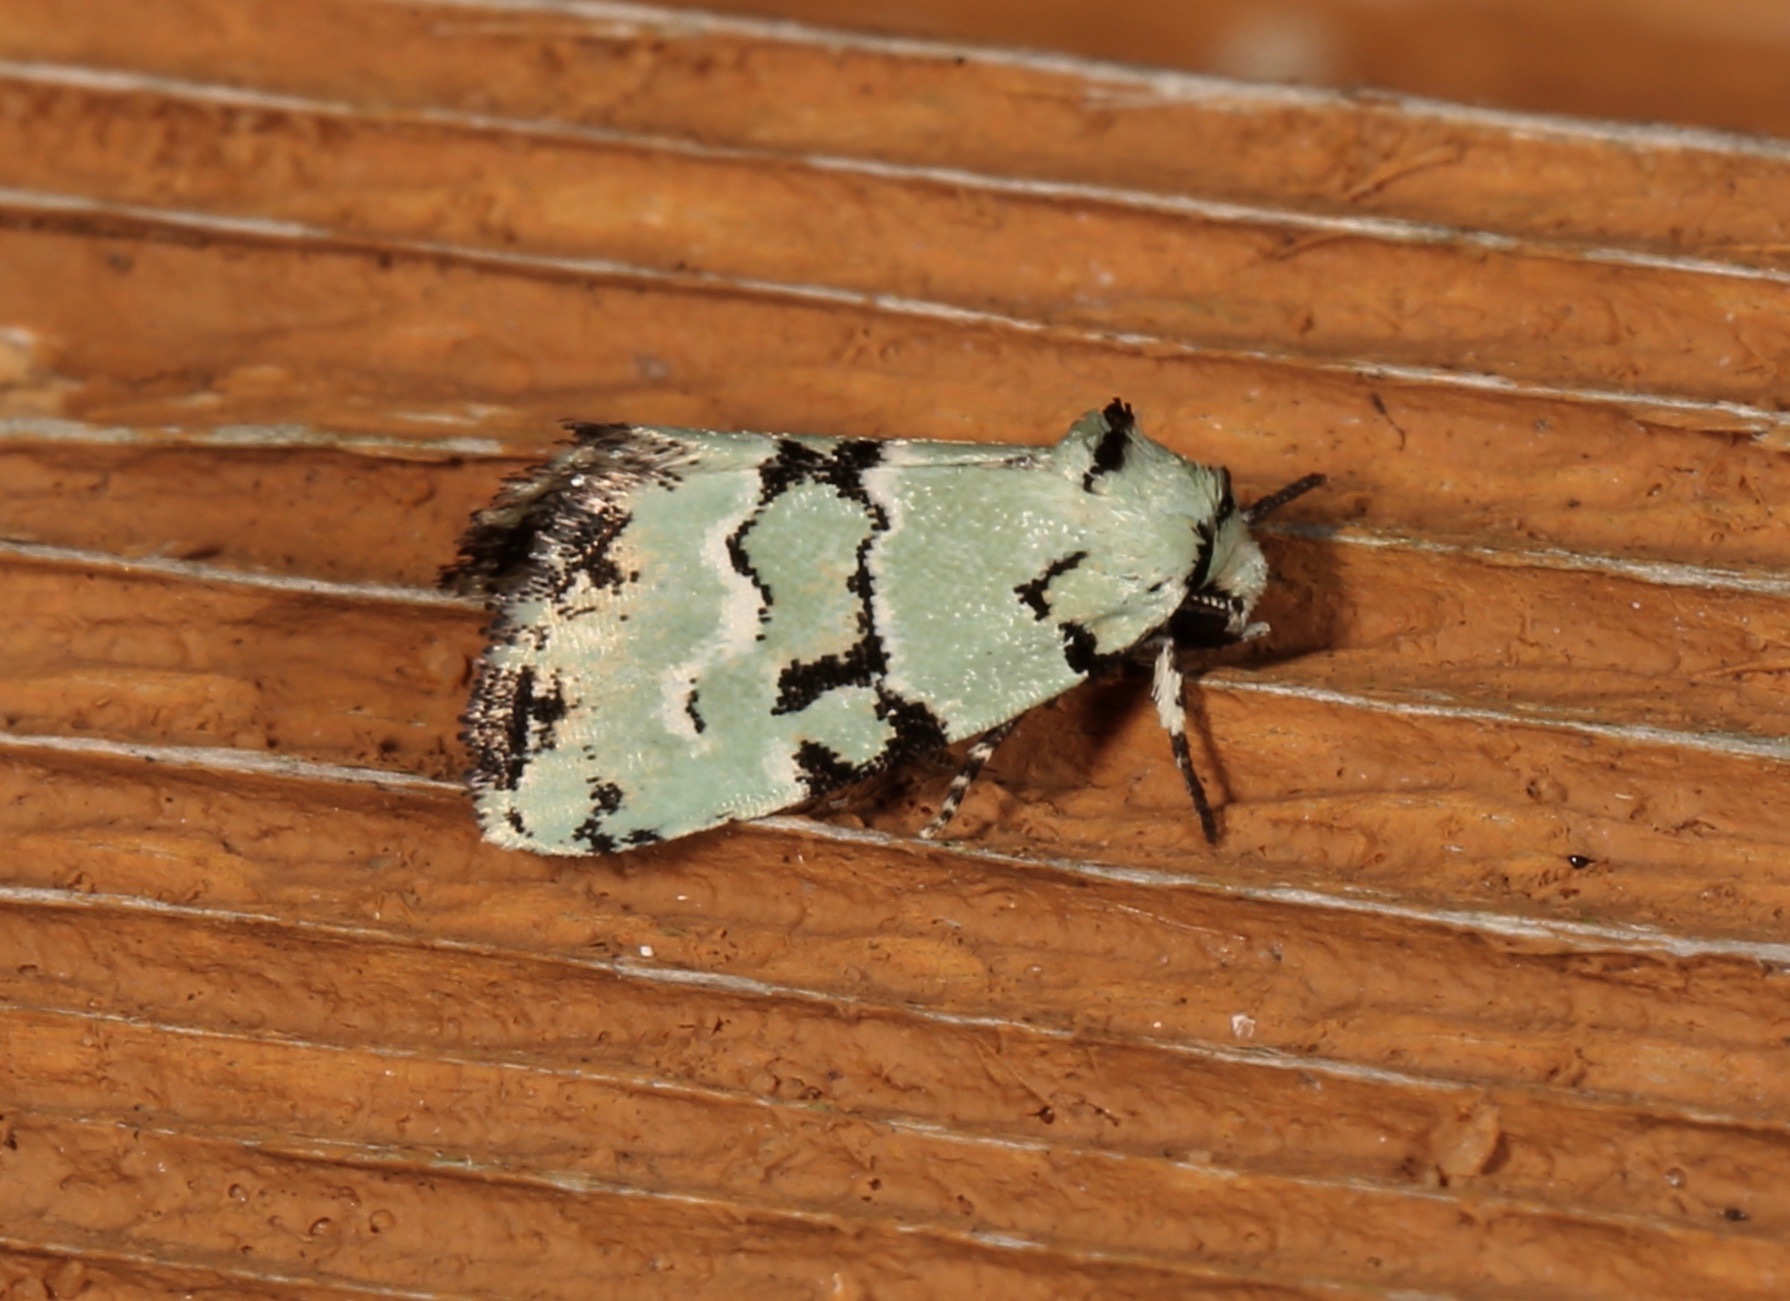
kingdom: Animalia
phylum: Arthropoda
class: Insecta
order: Lepidoptera
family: Noctuidae
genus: Elaphria
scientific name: Elaphria cyanympha
